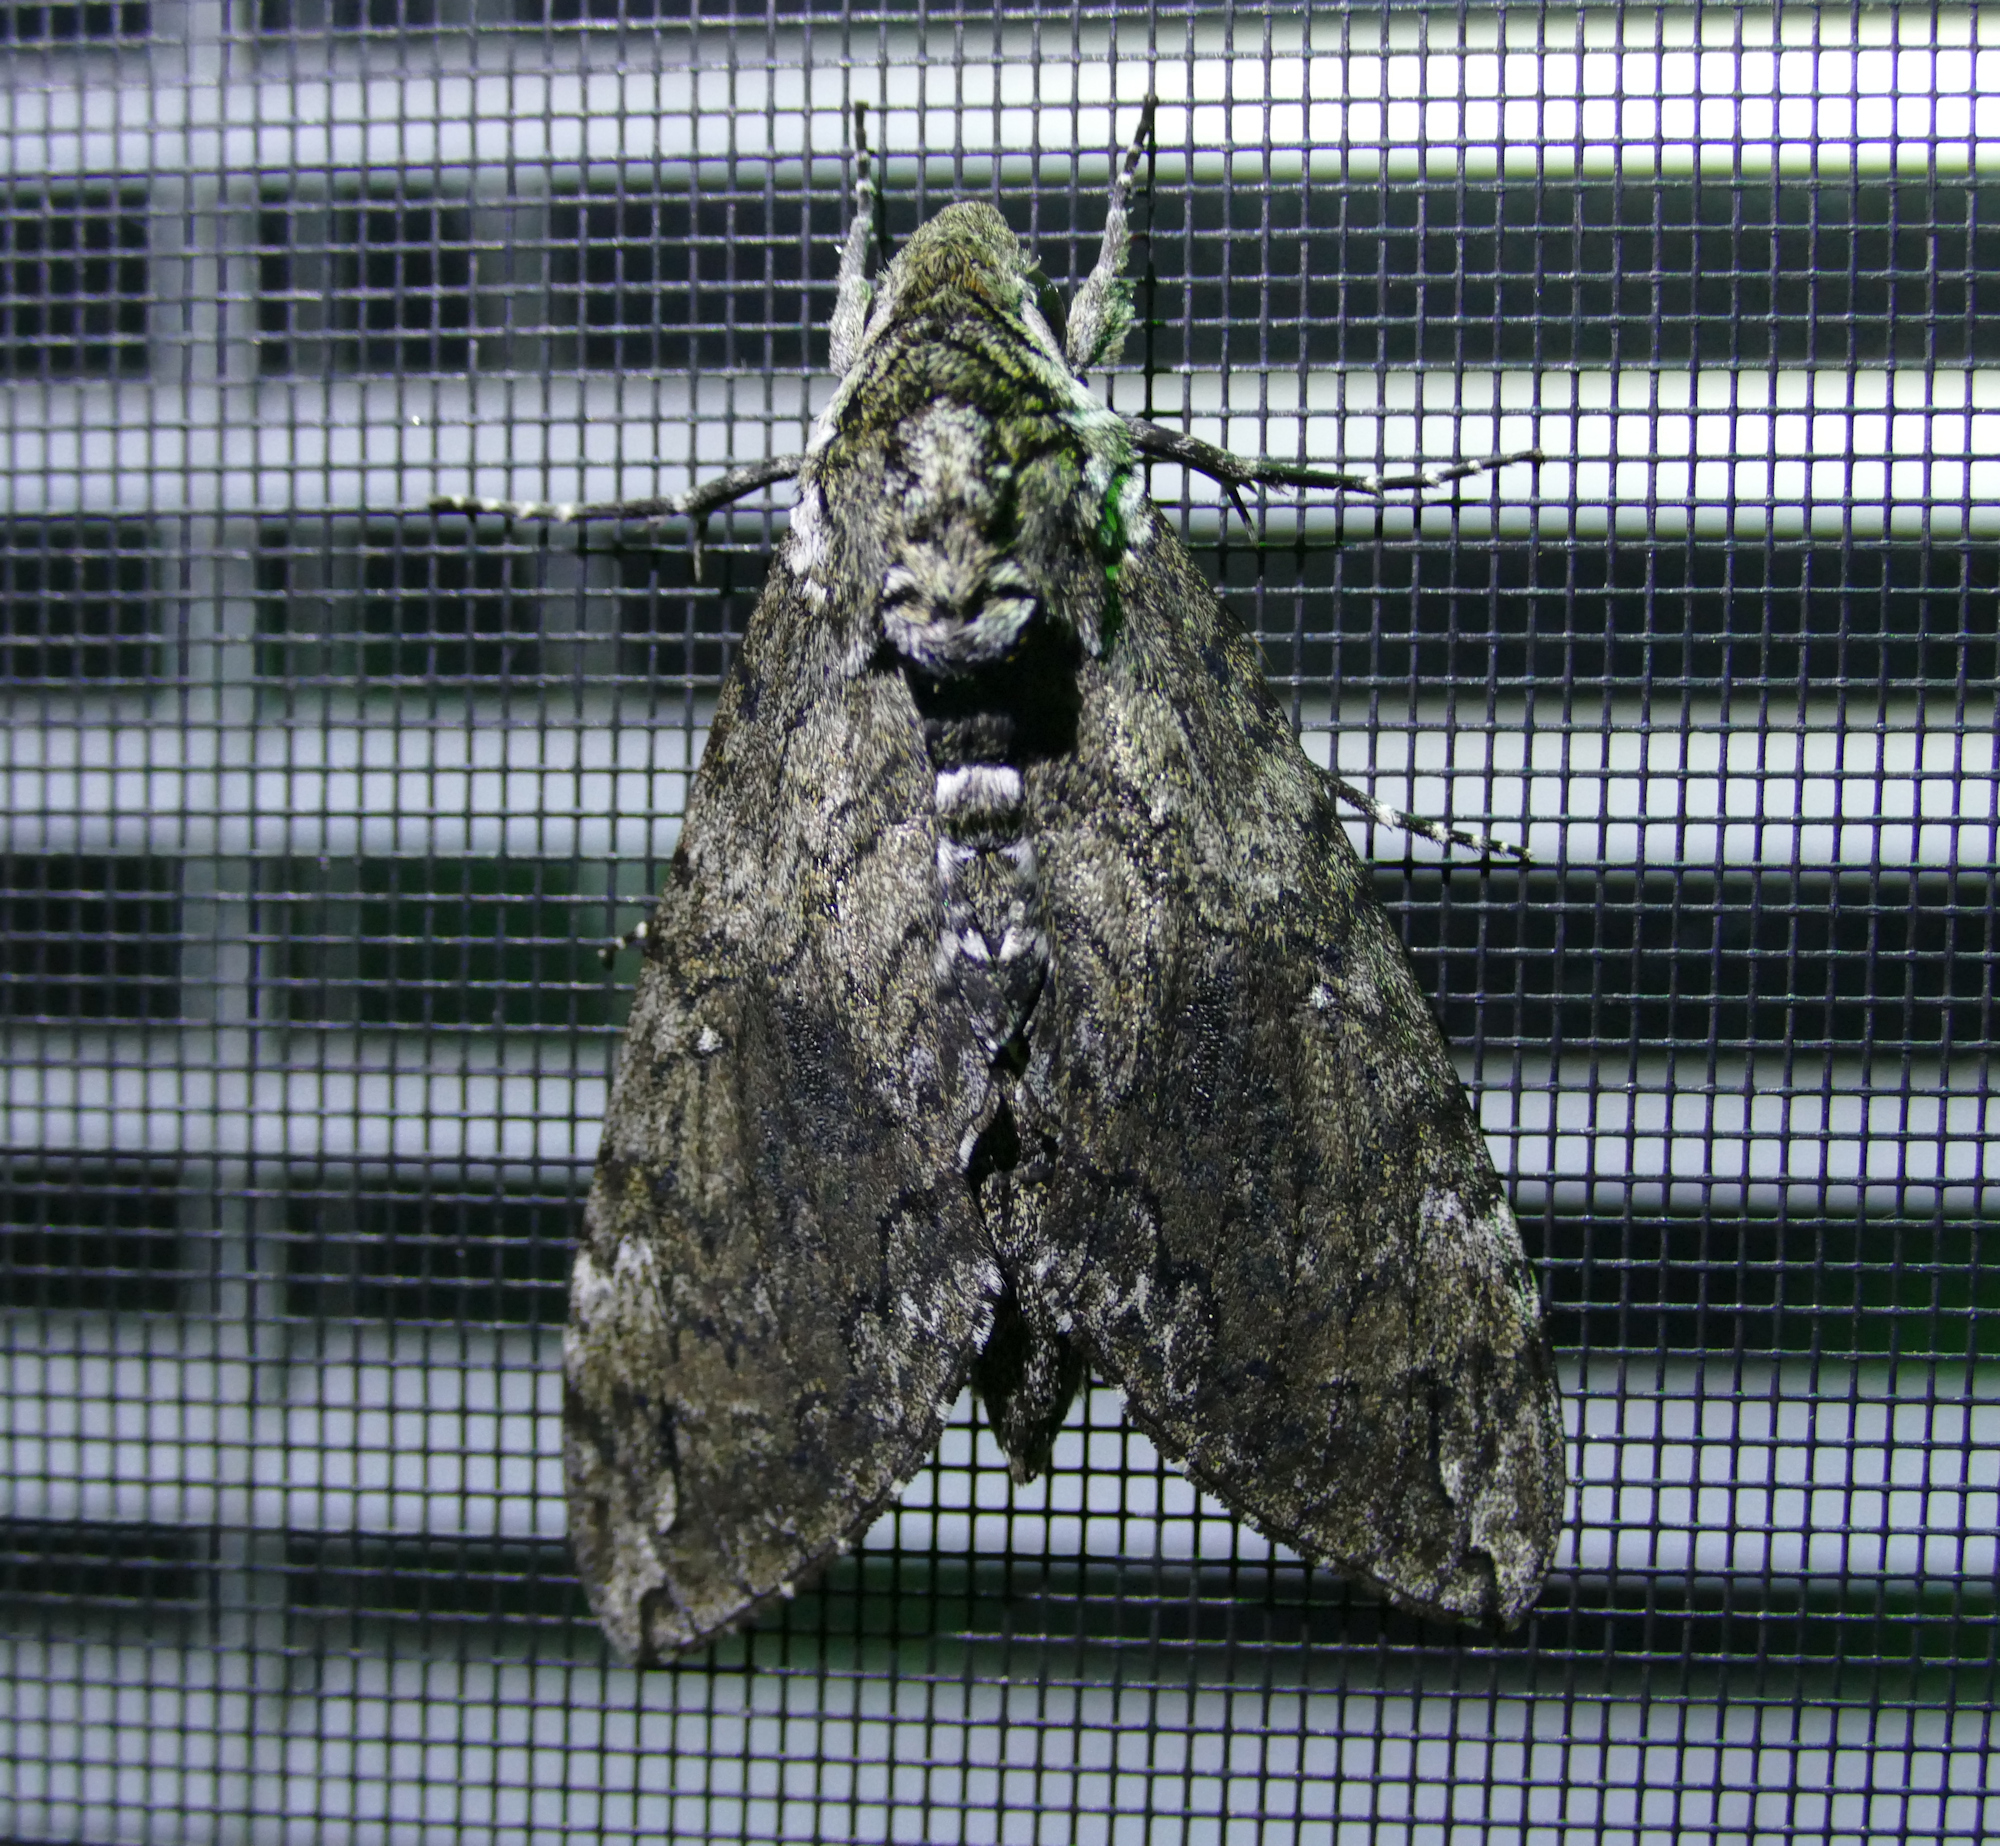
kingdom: Animalia
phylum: Arthropoda
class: Insecta
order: Lepidoptera
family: Sphingidae
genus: Manduca
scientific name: Manduca sexta
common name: Carolina sphinx
